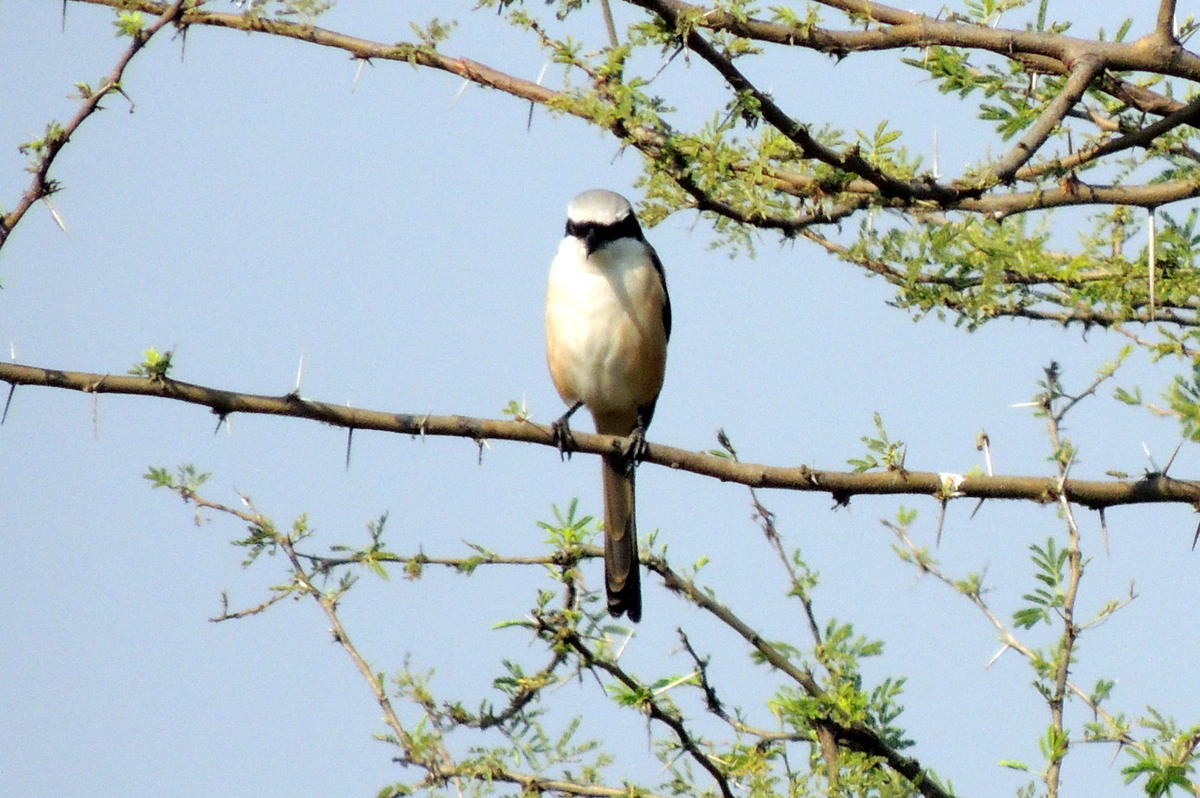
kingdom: Animalia
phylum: Chordata
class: Aves
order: Passeriformes
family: Laniidae
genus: Lanius
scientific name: Lanius schach
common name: Long-tailed shrike
